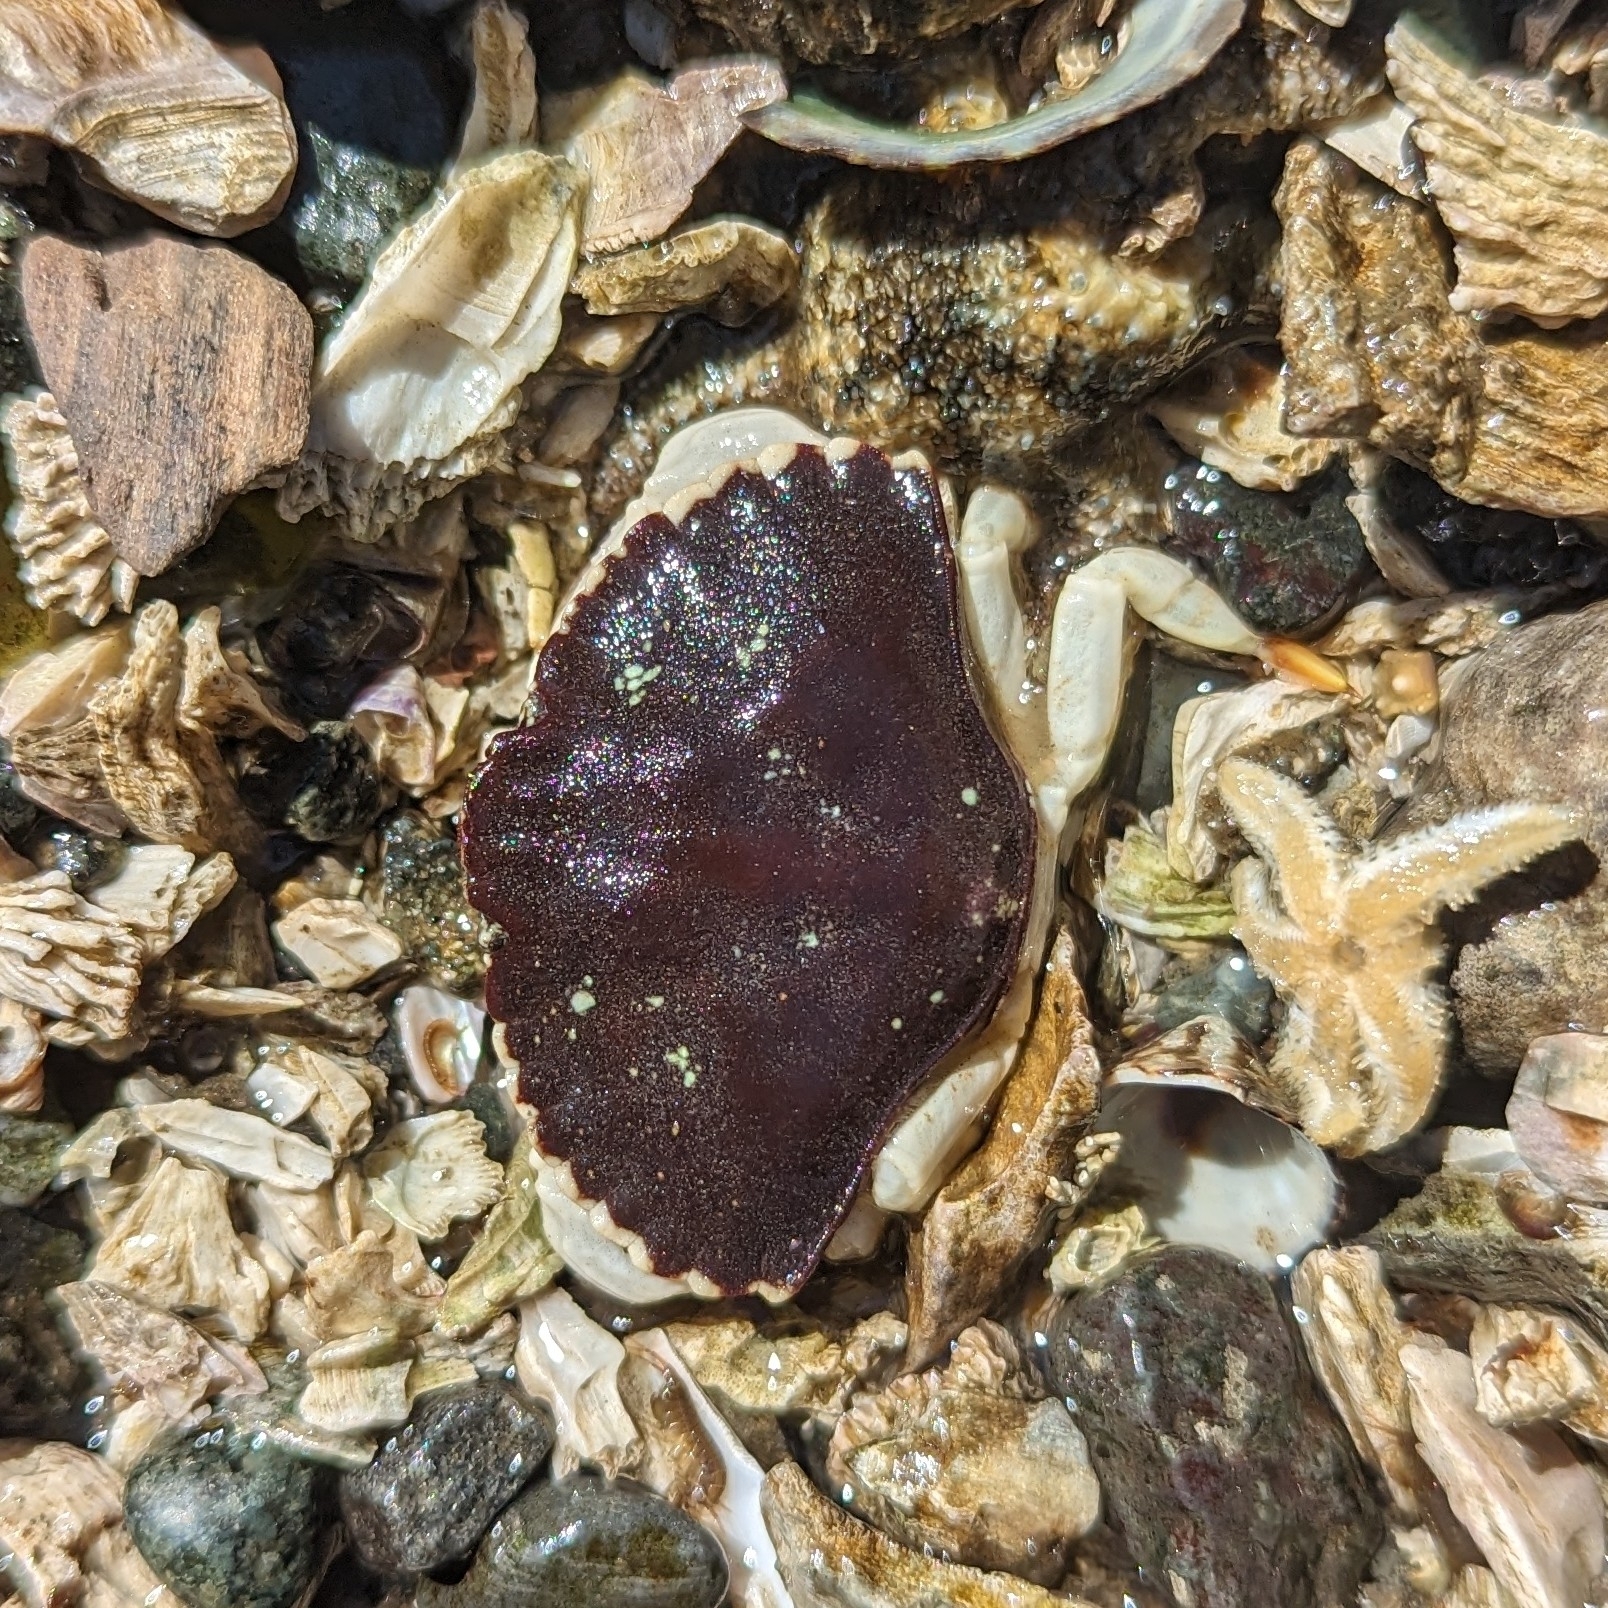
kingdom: Animalia
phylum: Arthropoda
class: Malacostraca
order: Decapoda
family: Cancridae
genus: Cancer
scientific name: Cancer productus
